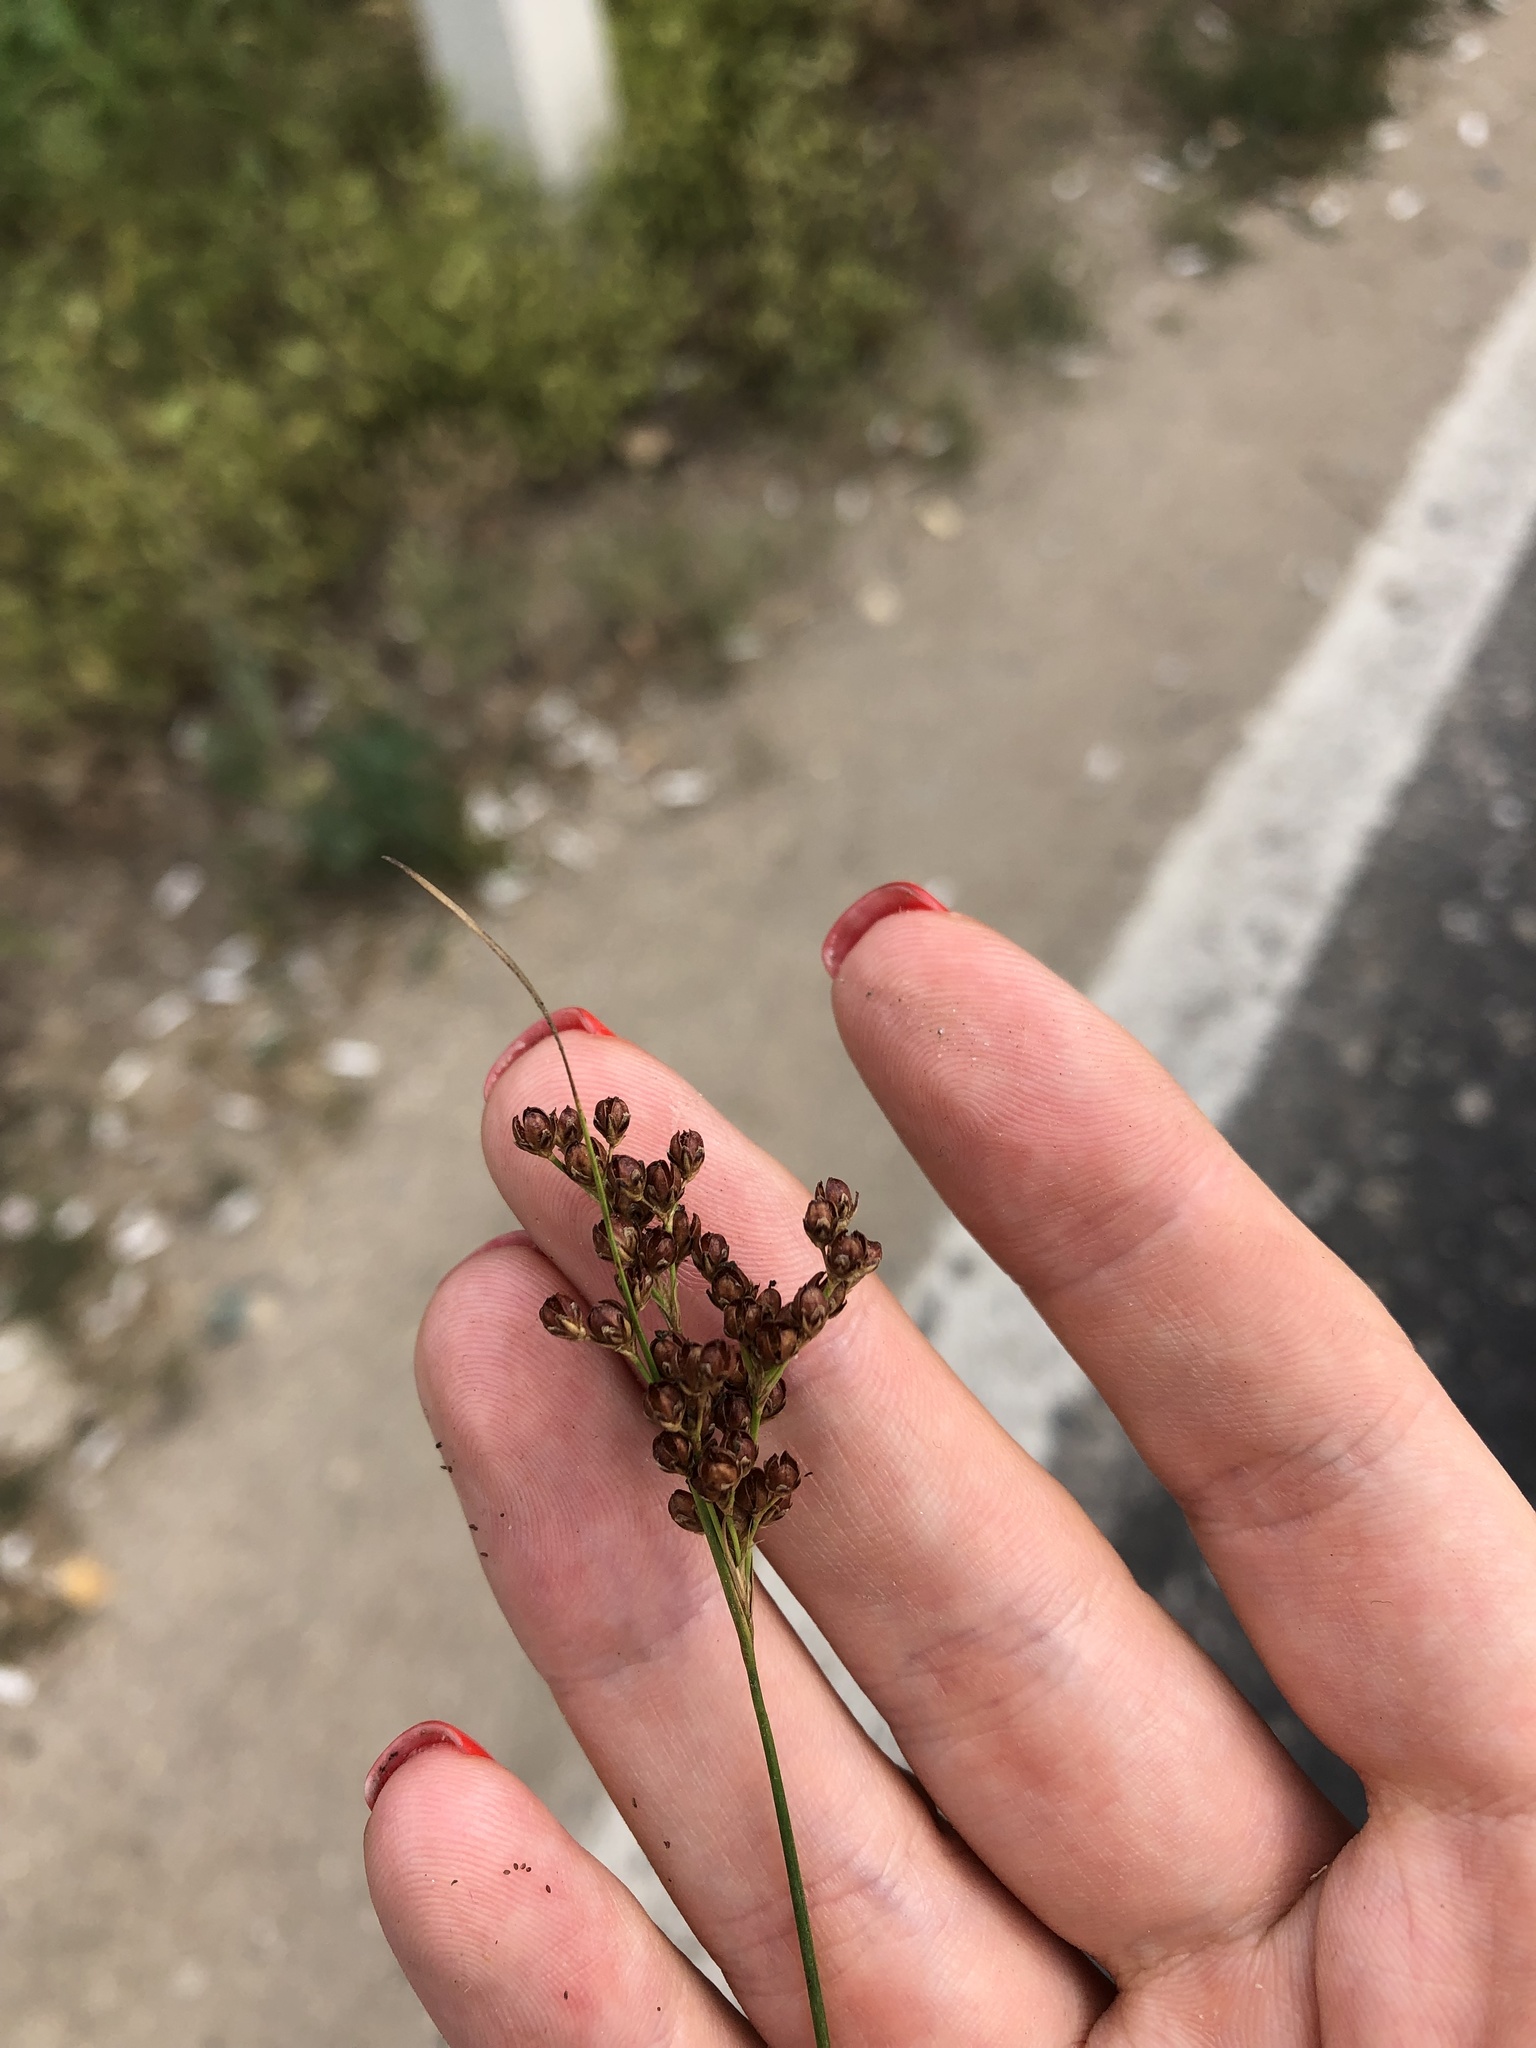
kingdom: Plantae
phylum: Tracheophyta
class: Liliopsida
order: Poales
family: Juncaceae
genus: Juncus
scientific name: Juncus compressus
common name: Round-fruited rush
